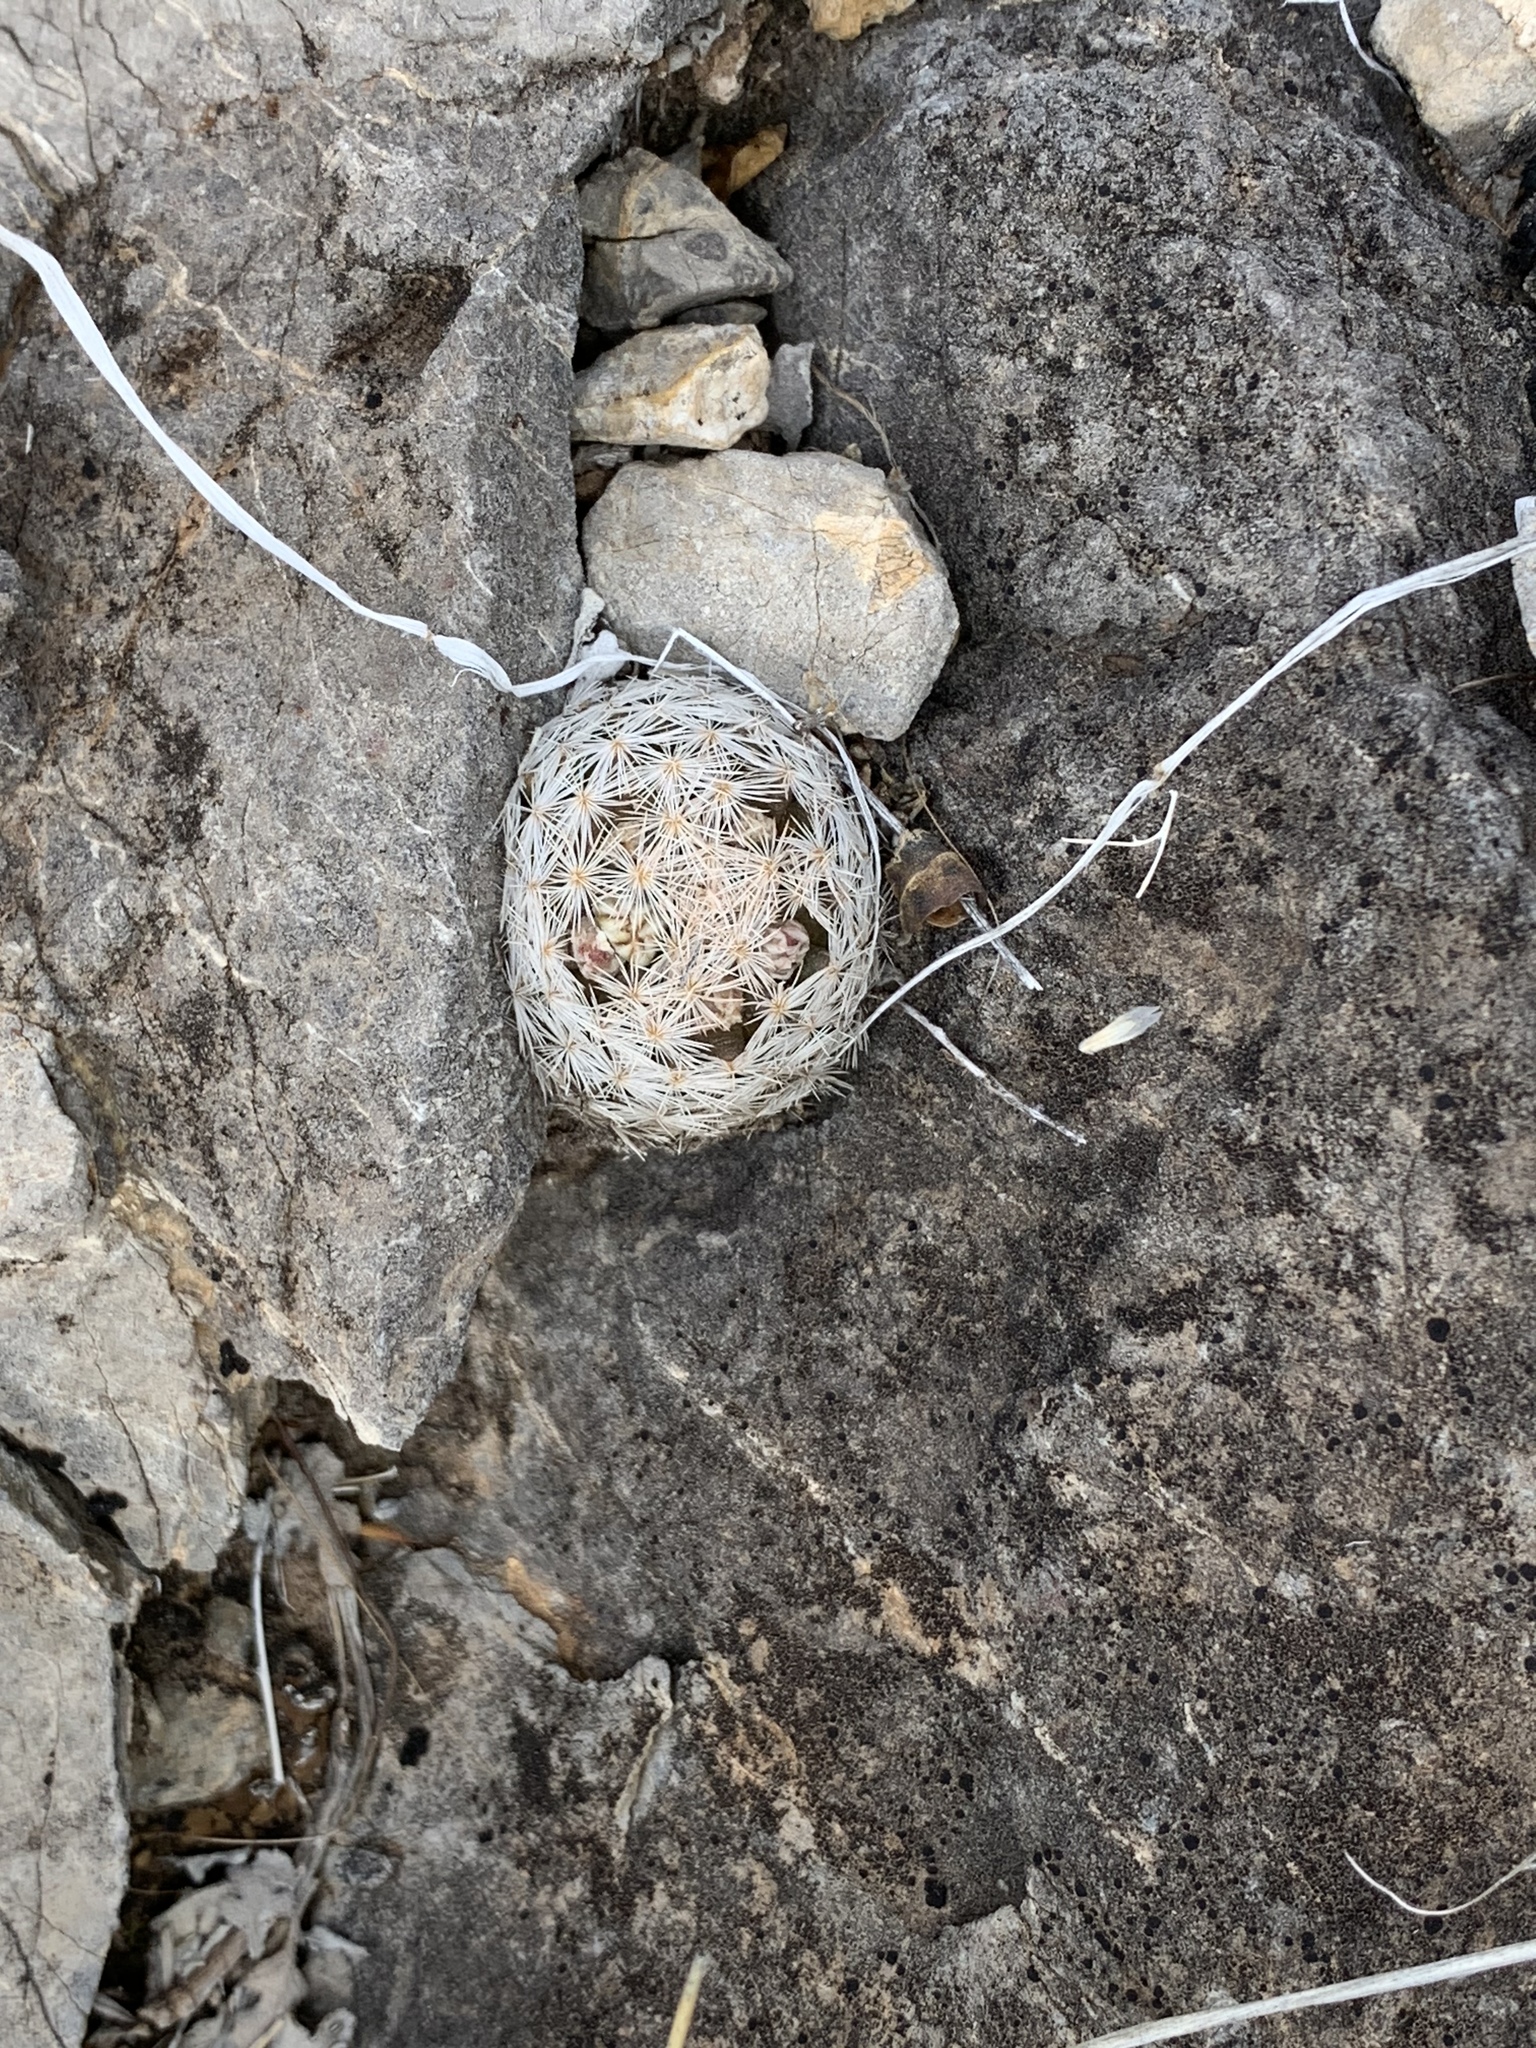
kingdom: Plantae
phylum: Tracheophyta
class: Magnoliopsida
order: Caryophyllales
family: Cactaceae
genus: Mammillaria
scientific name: Mammillaria lasiacantha
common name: Lace-spine nipple cactus
